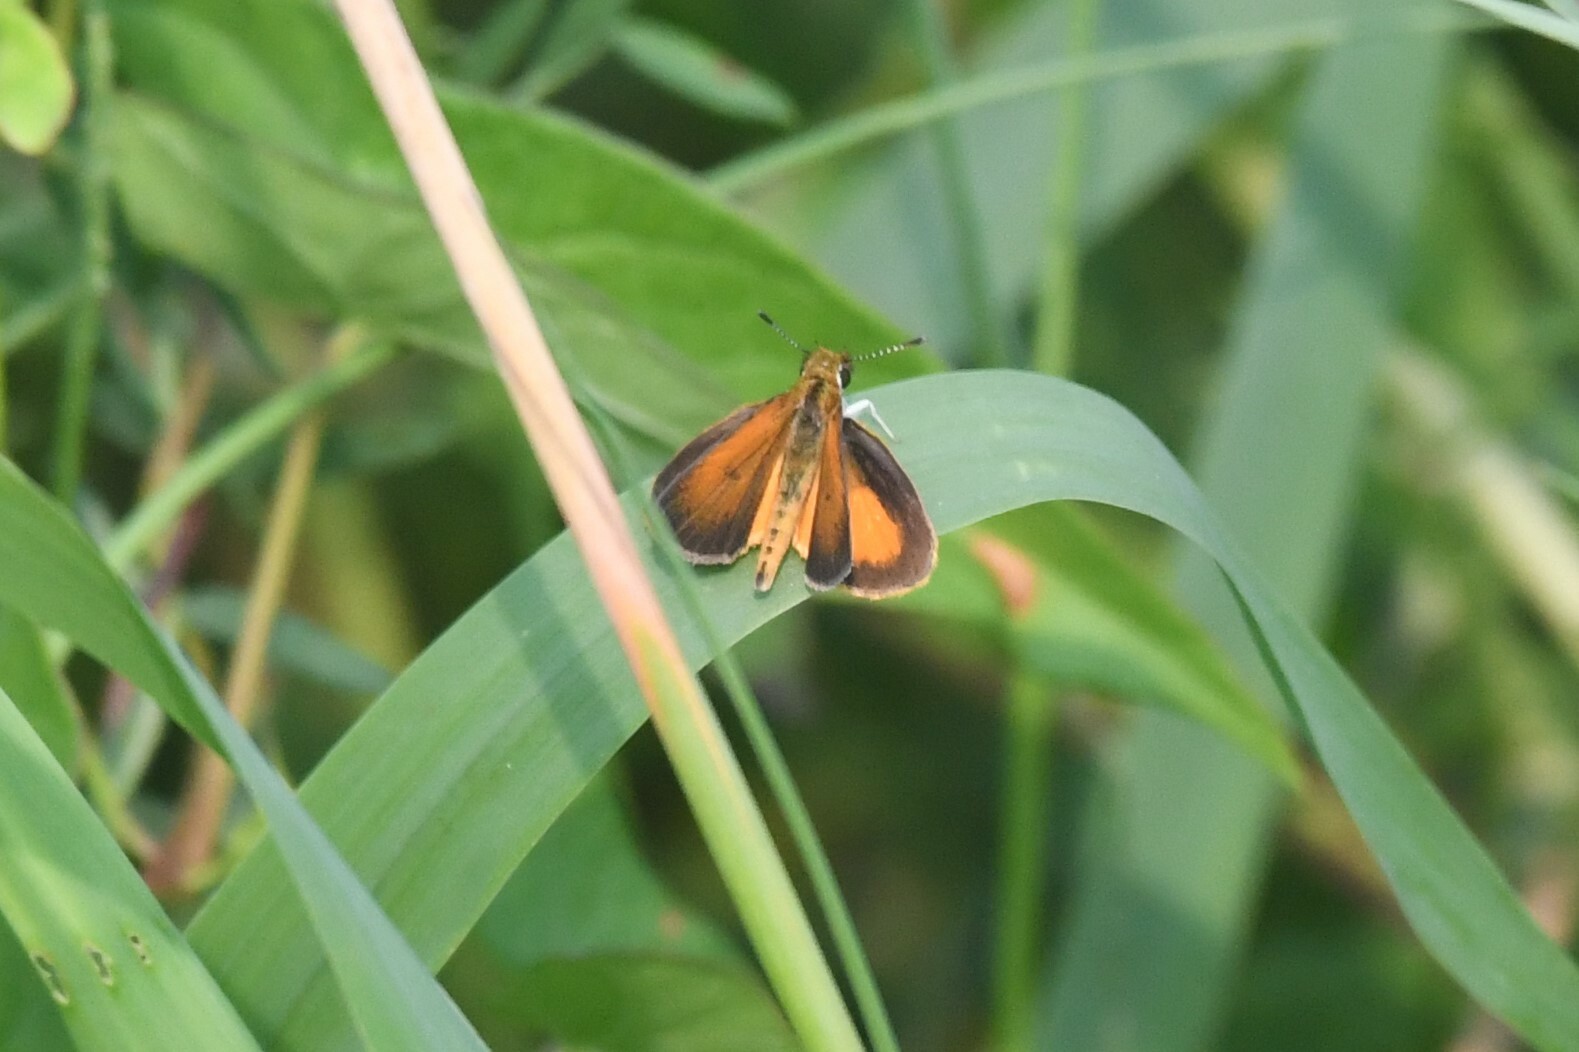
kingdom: Animalia
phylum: Arthropoda
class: Insecta
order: Lepidoptera
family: Hesperiidae
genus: Ancyloxypha
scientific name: Ancyloxypha numitor
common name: Least skipper
